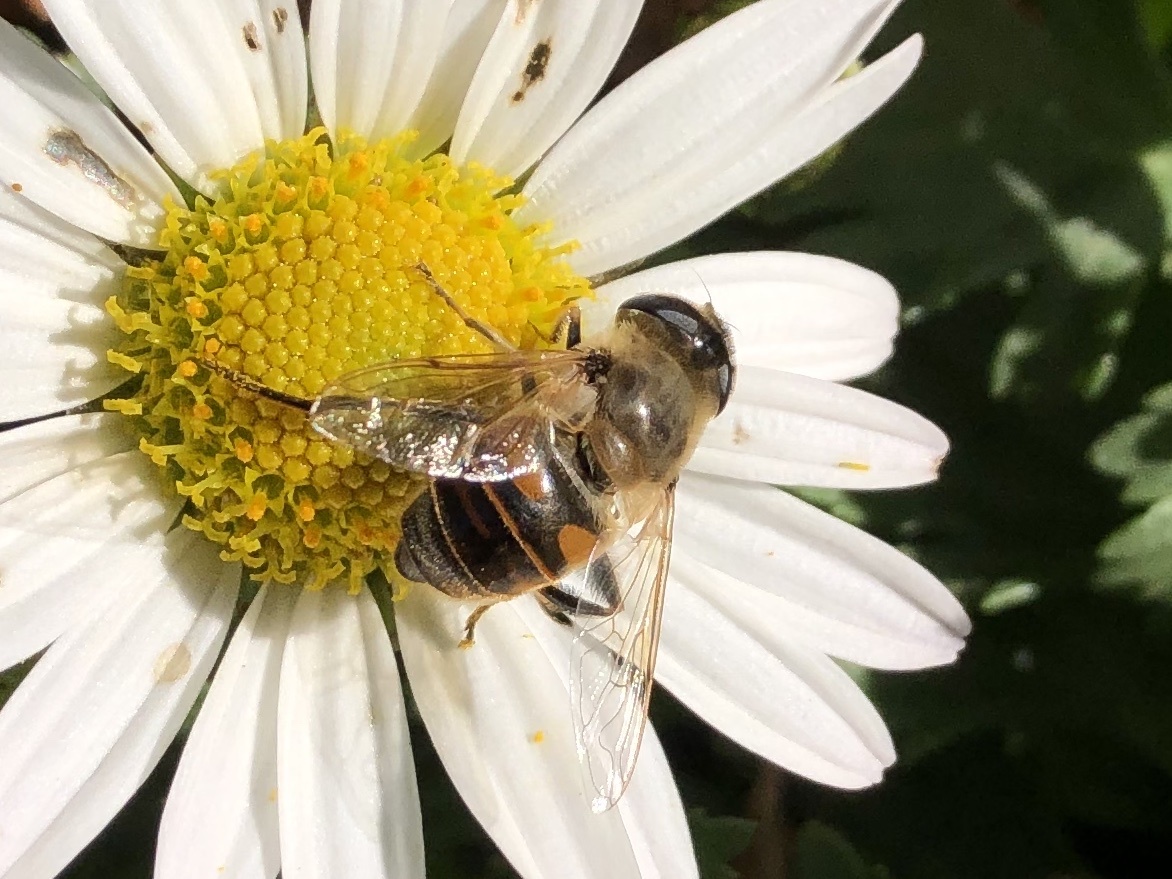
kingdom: Animalia
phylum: Arthropoda
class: Insecta
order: Diptera
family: Syrphidae
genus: Eristalis
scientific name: Eristalis tenax
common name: Drone fly
